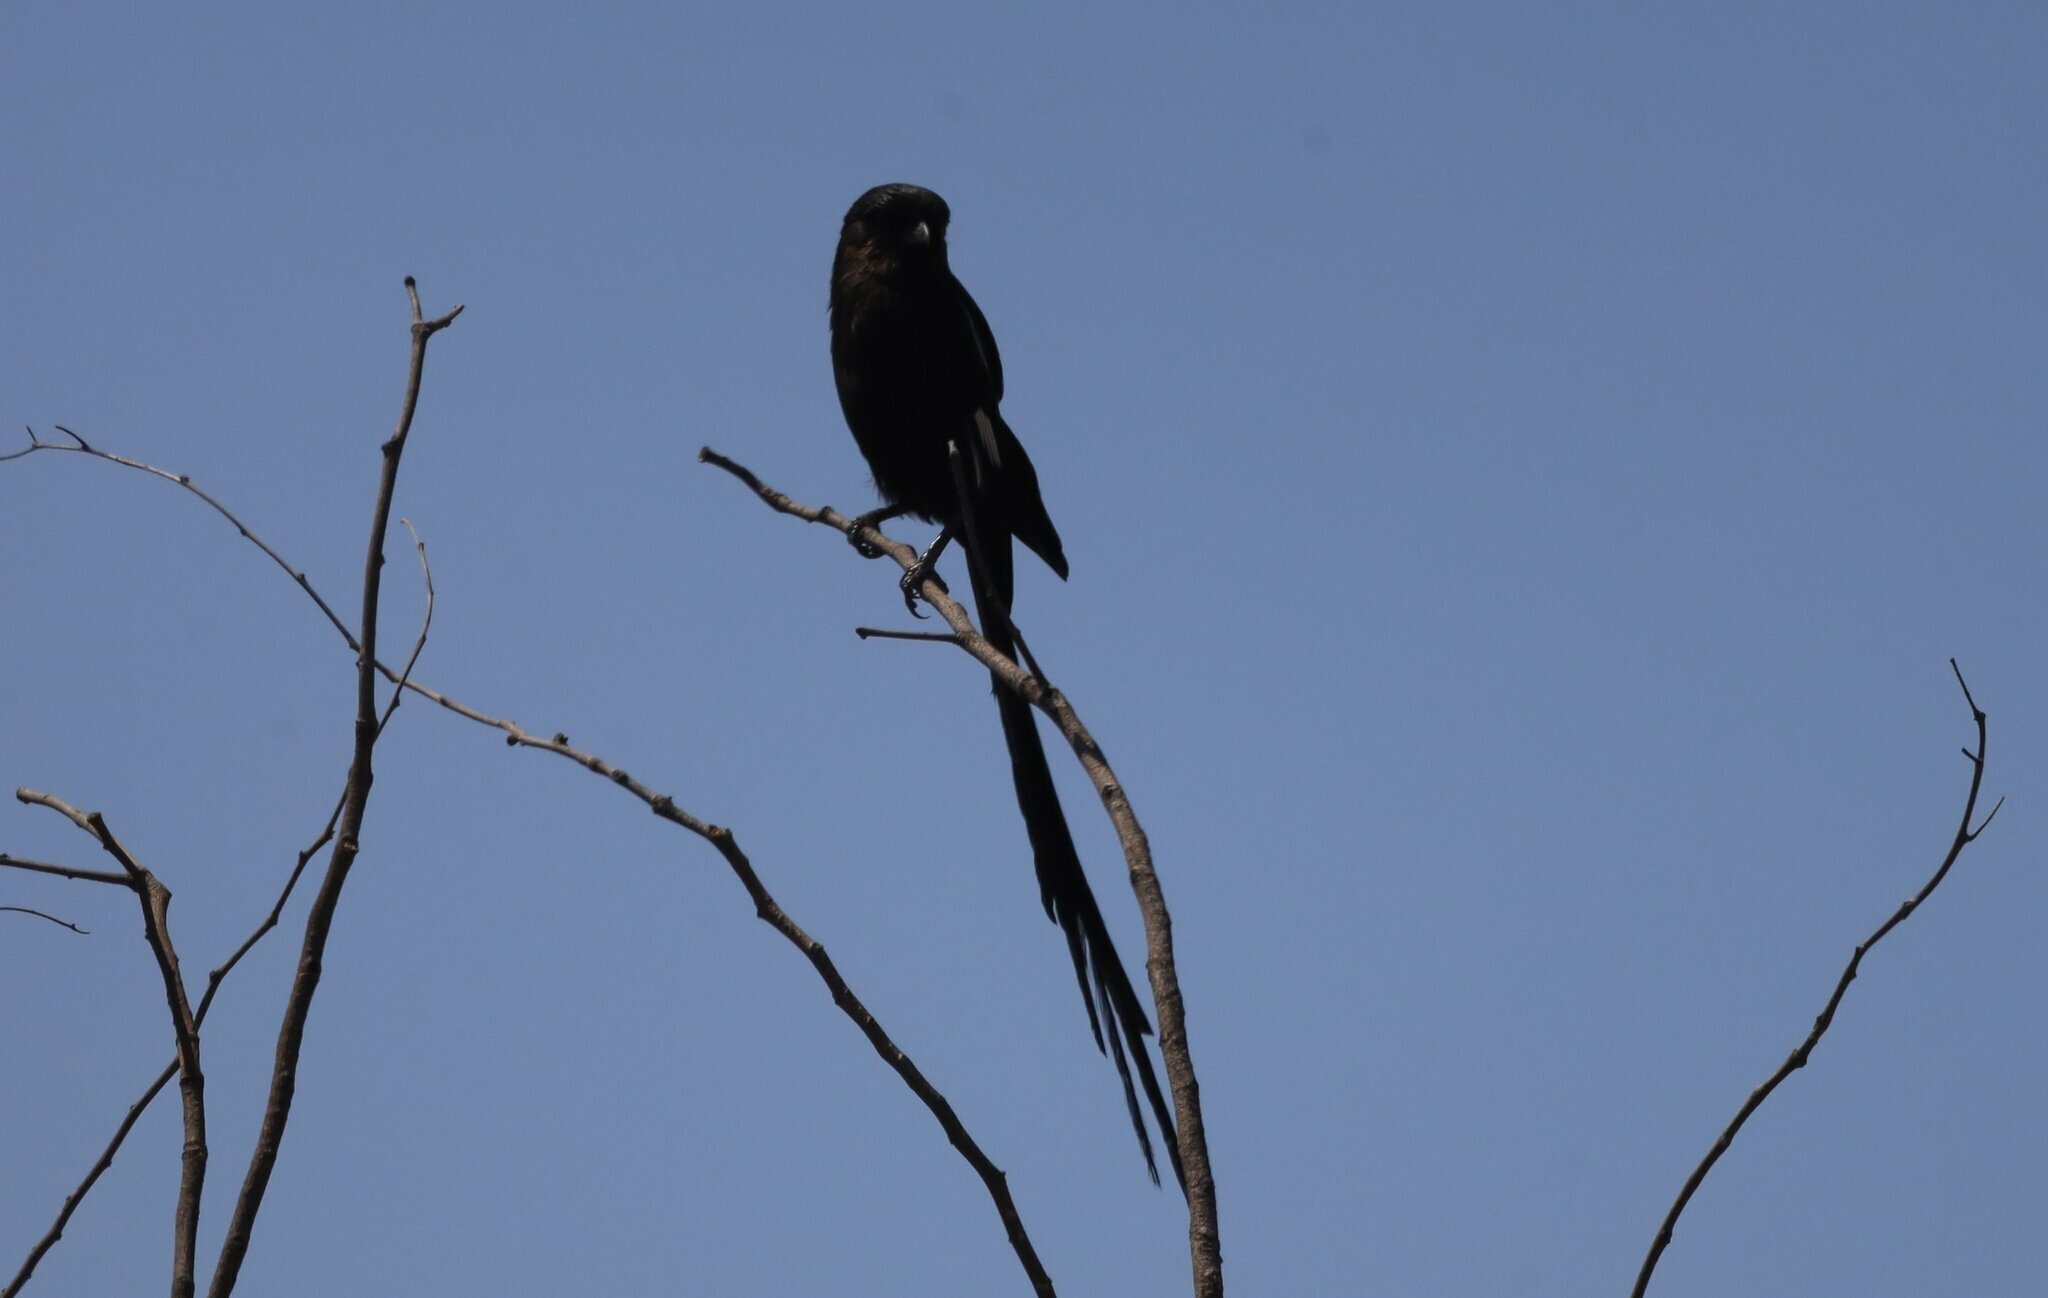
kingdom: Animalia
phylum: Chordata
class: Aves
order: Passeriformes
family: Laniidae
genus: Urolestes
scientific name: Urolestes melanoleucus
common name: Magpie shrike
